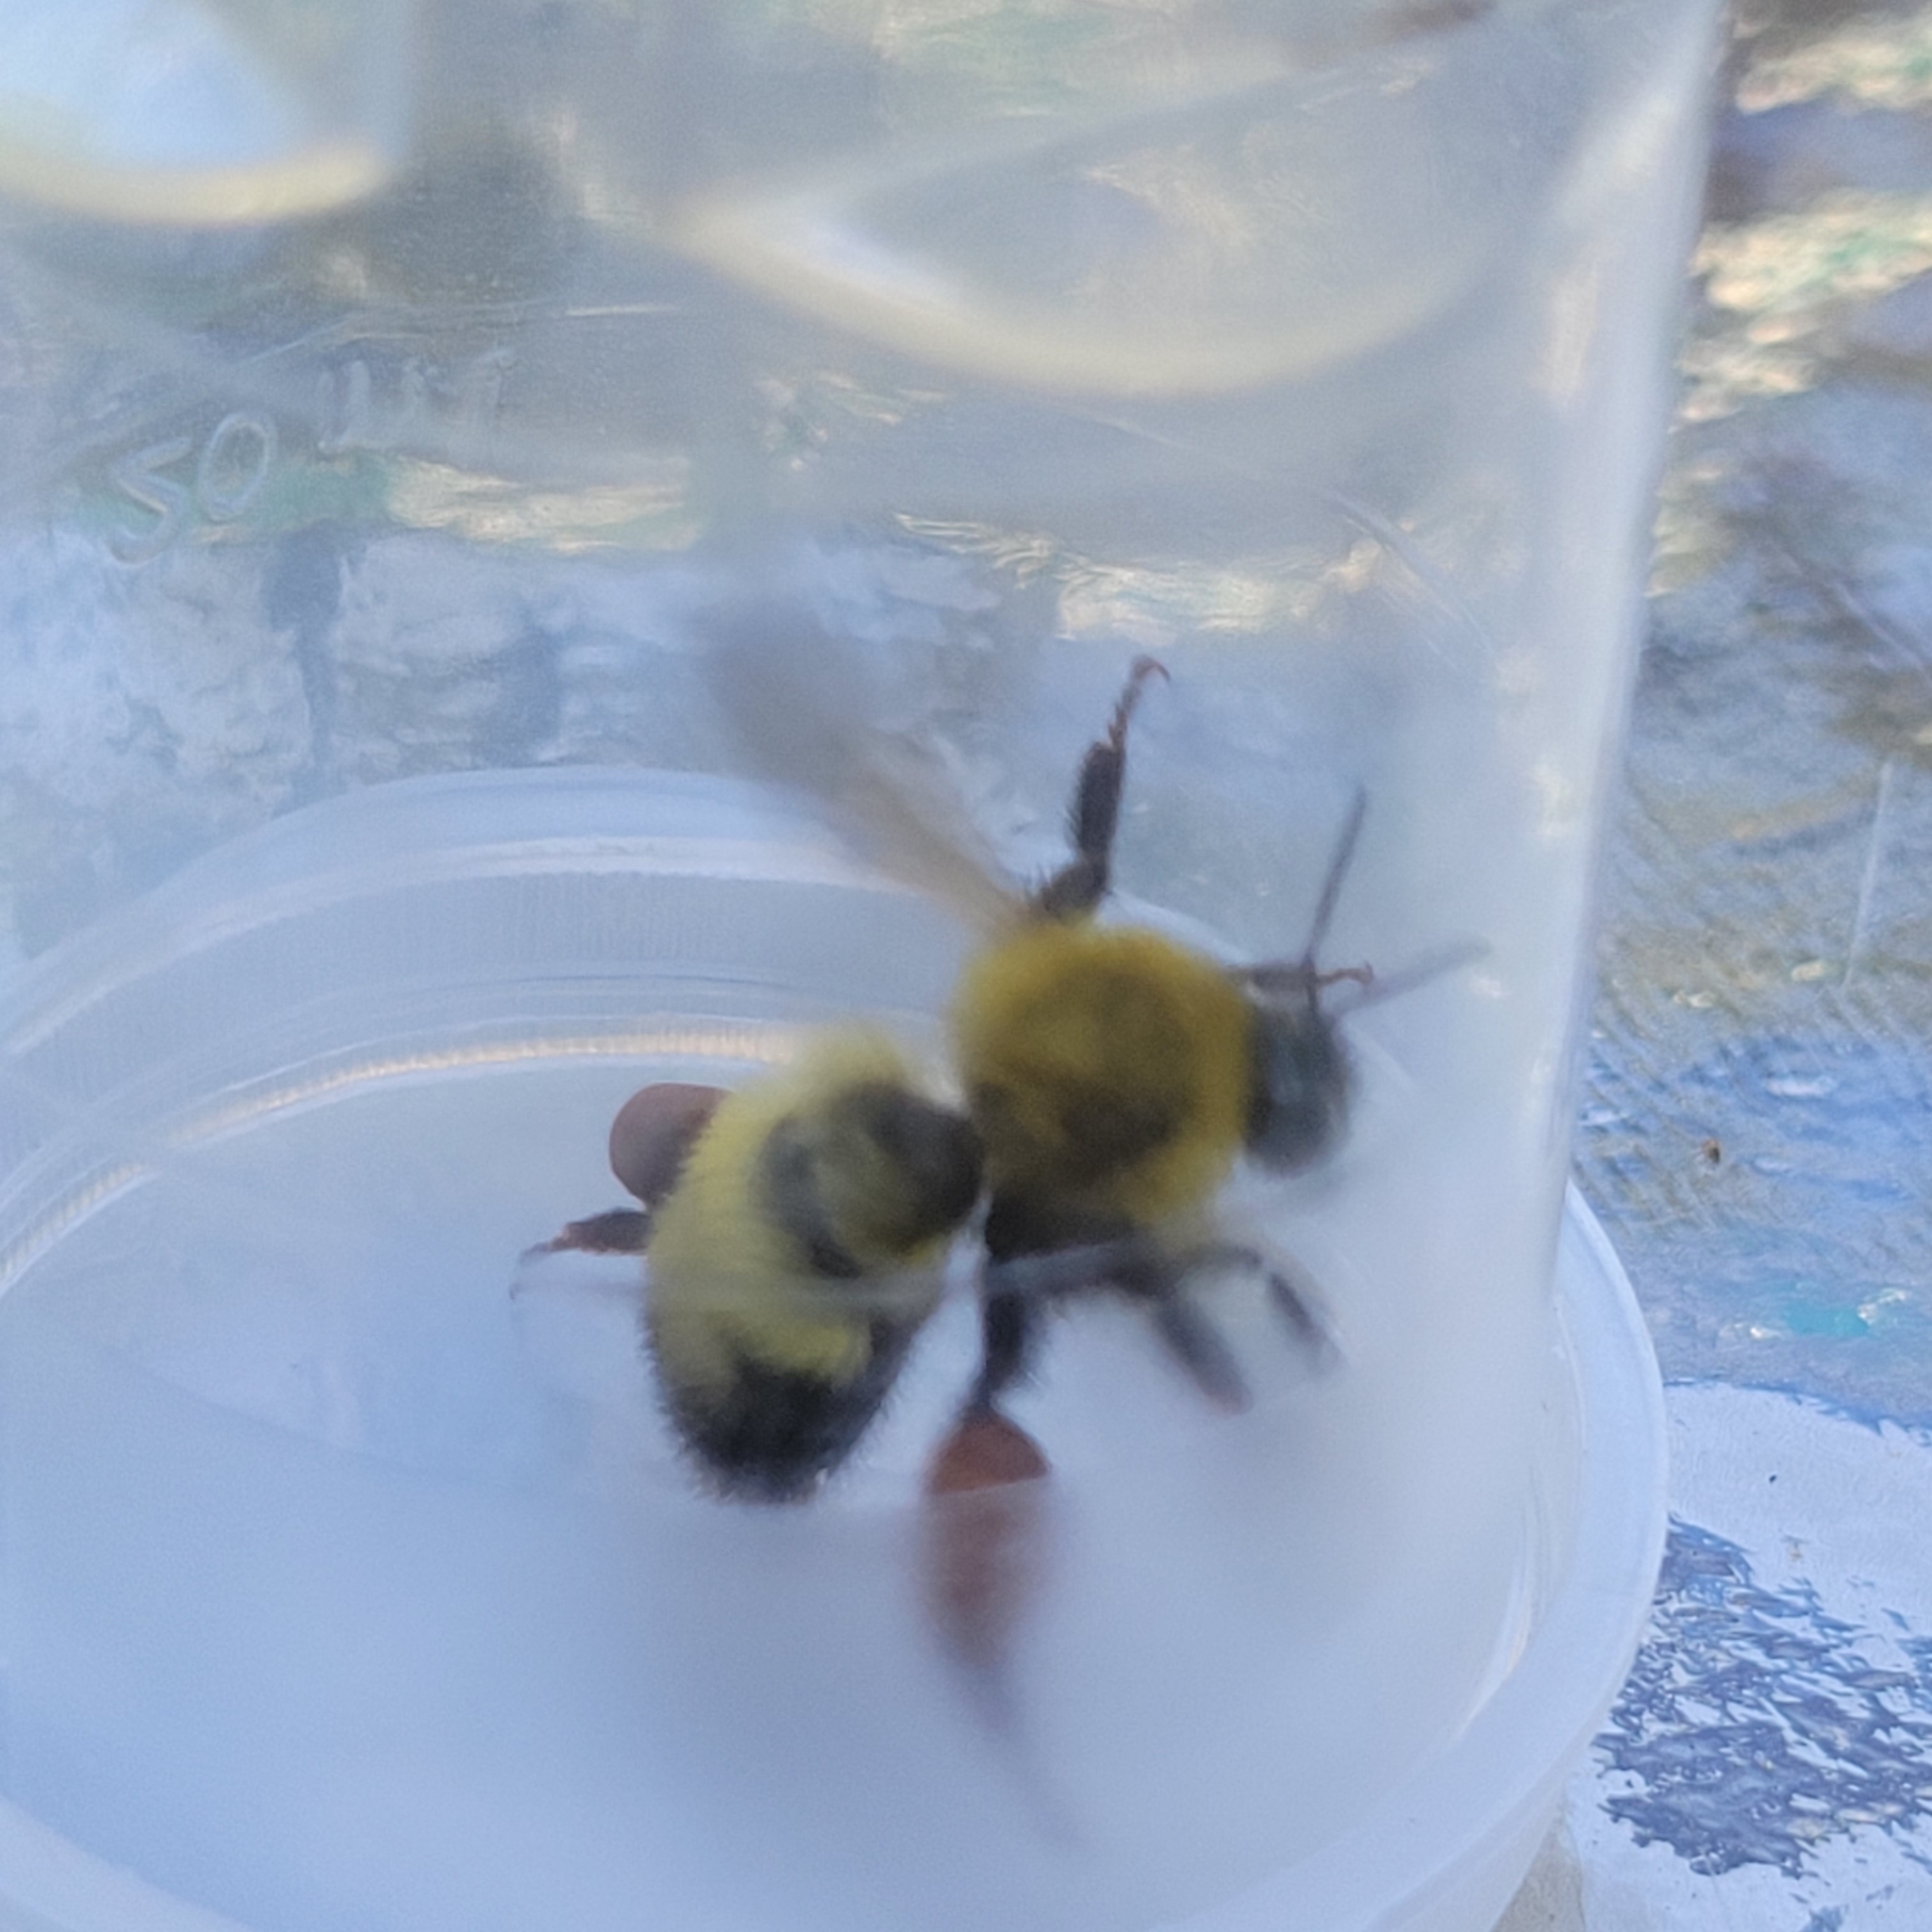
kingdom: Animalia
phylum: Arthropoda
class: Insecta
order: Hymenoptera
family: Apidae
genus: Bombus
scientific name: Bombus perplexus
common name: Confusing bumble bee
